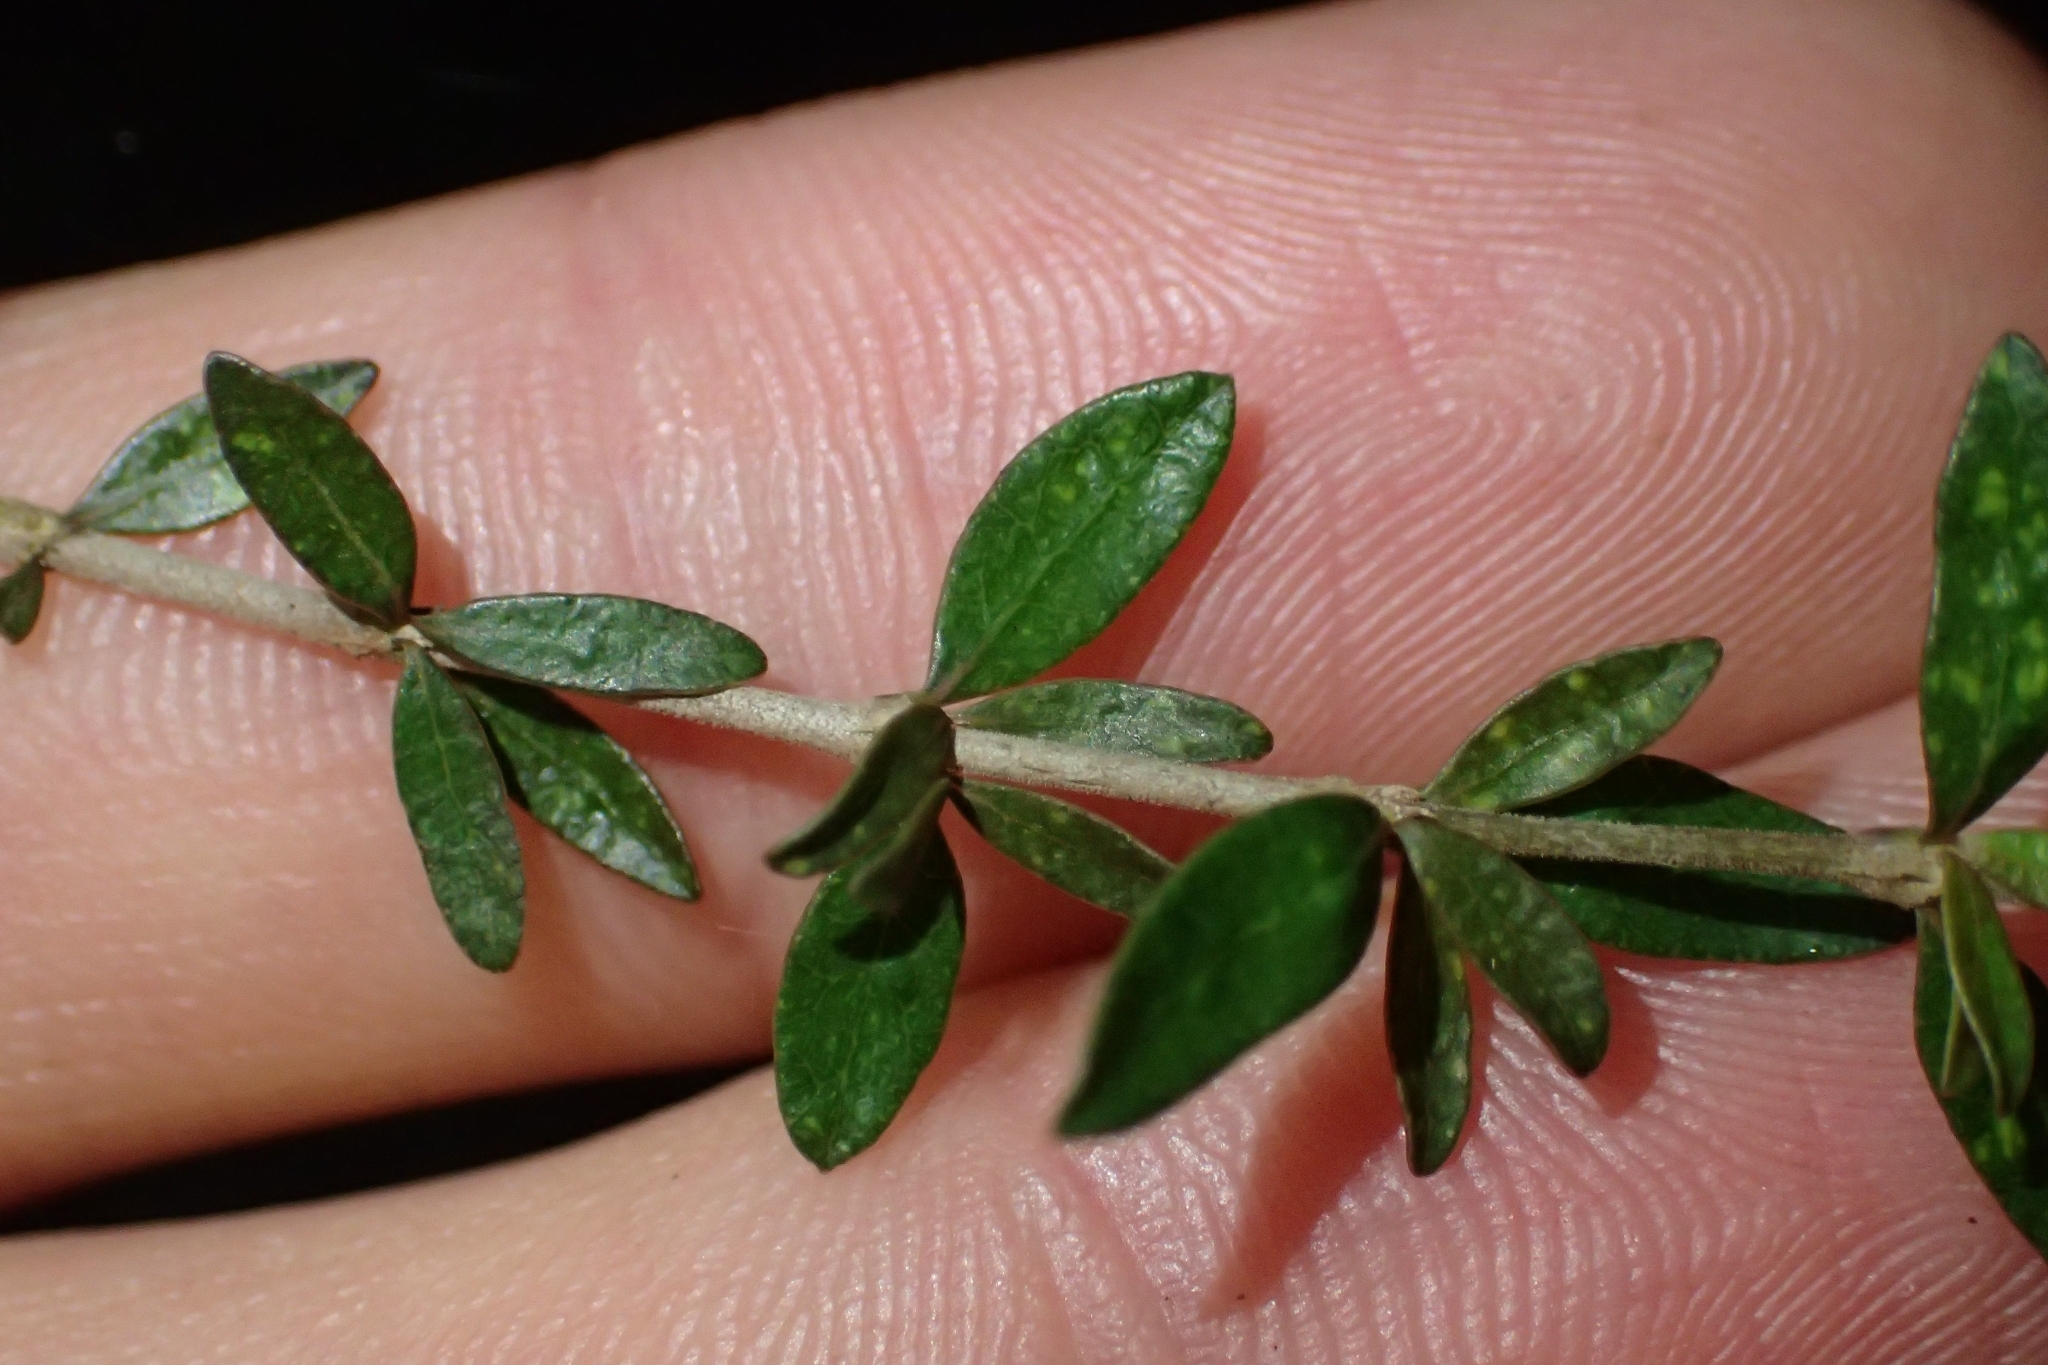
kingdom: Plantae
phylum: Tracheophyta
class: Magnoliopsida
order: Gentianales
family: Rubiaceae
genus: Coprosma
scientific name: Coprosma obconica
